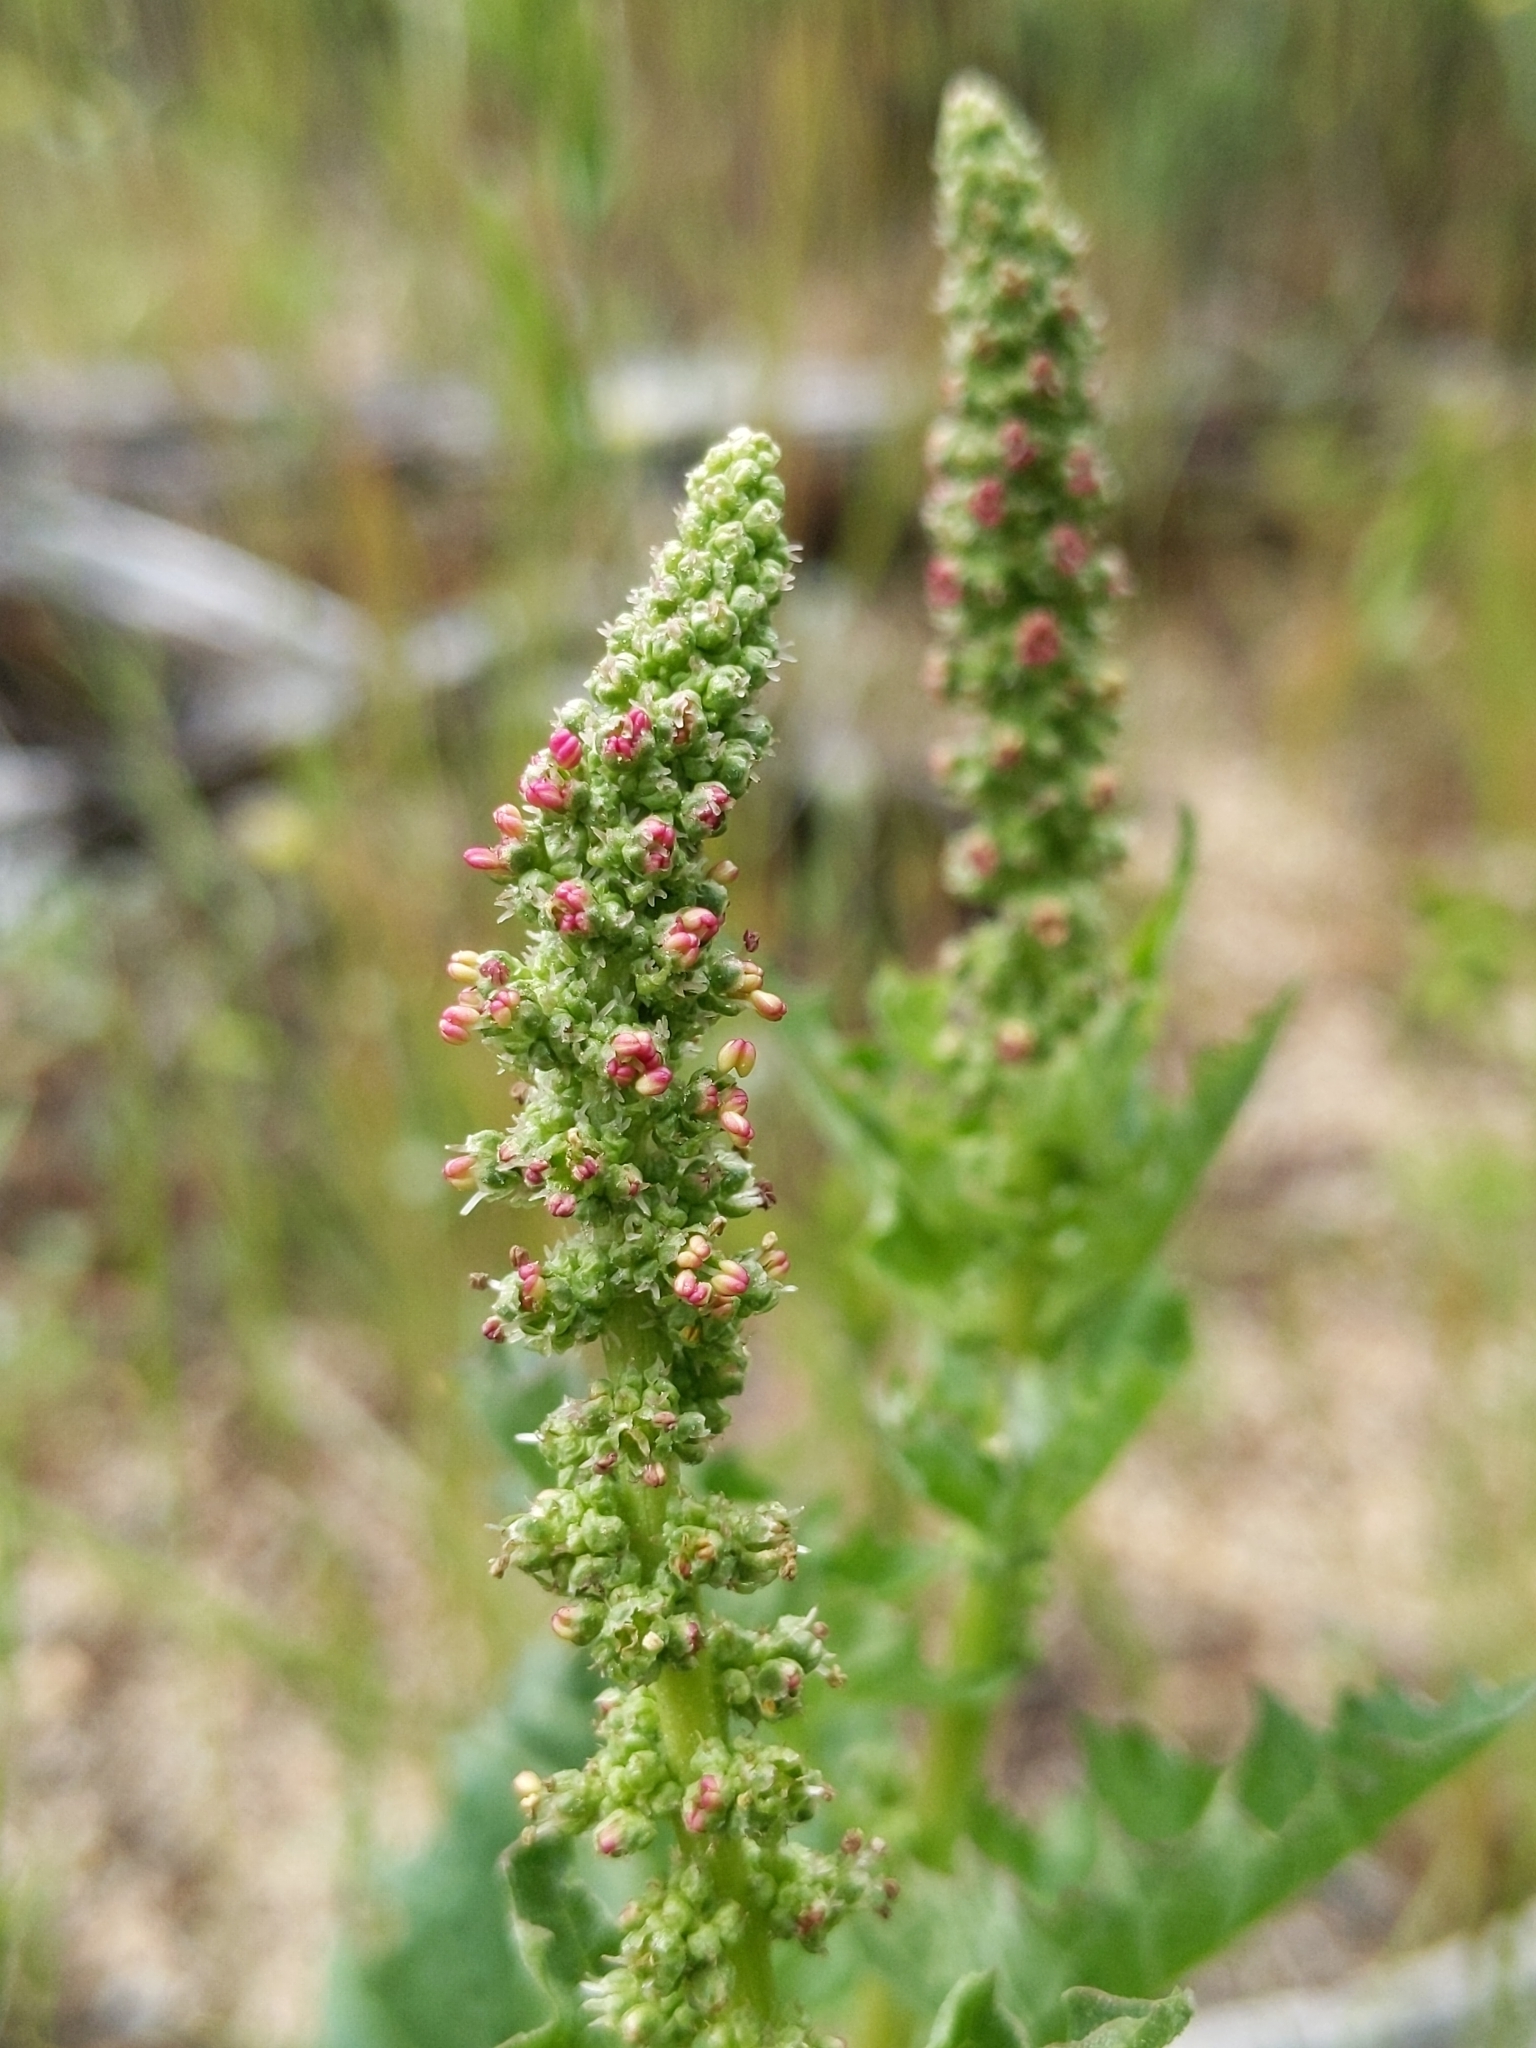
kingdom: Plantae
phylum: Tracheophyta
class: Magnoliopsida
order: Caryophyllales
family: Amaranthaceae
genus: Blitum
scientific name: Blitum californicum
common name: California goosefoot
